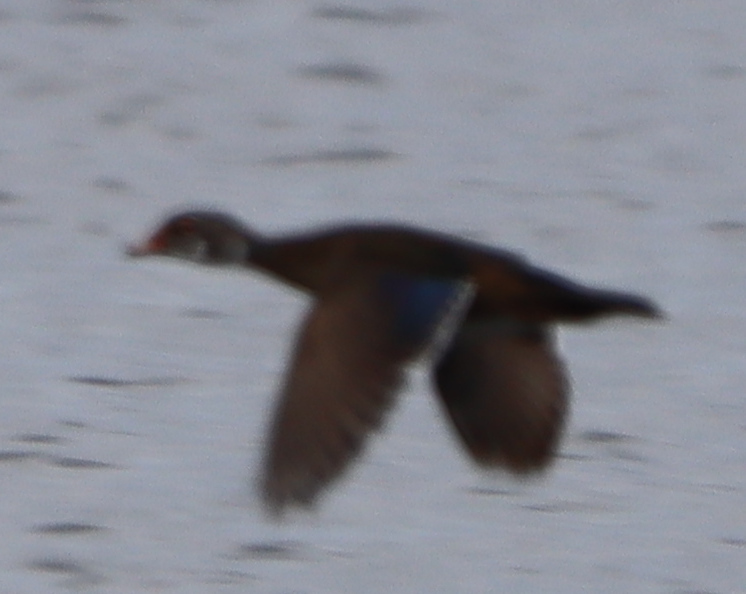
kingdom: Animalia
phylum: Chordata
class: Aves
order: Anseriformes
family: Anatidae
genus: Aix
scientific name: Aix sponsa
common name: Wood duck
